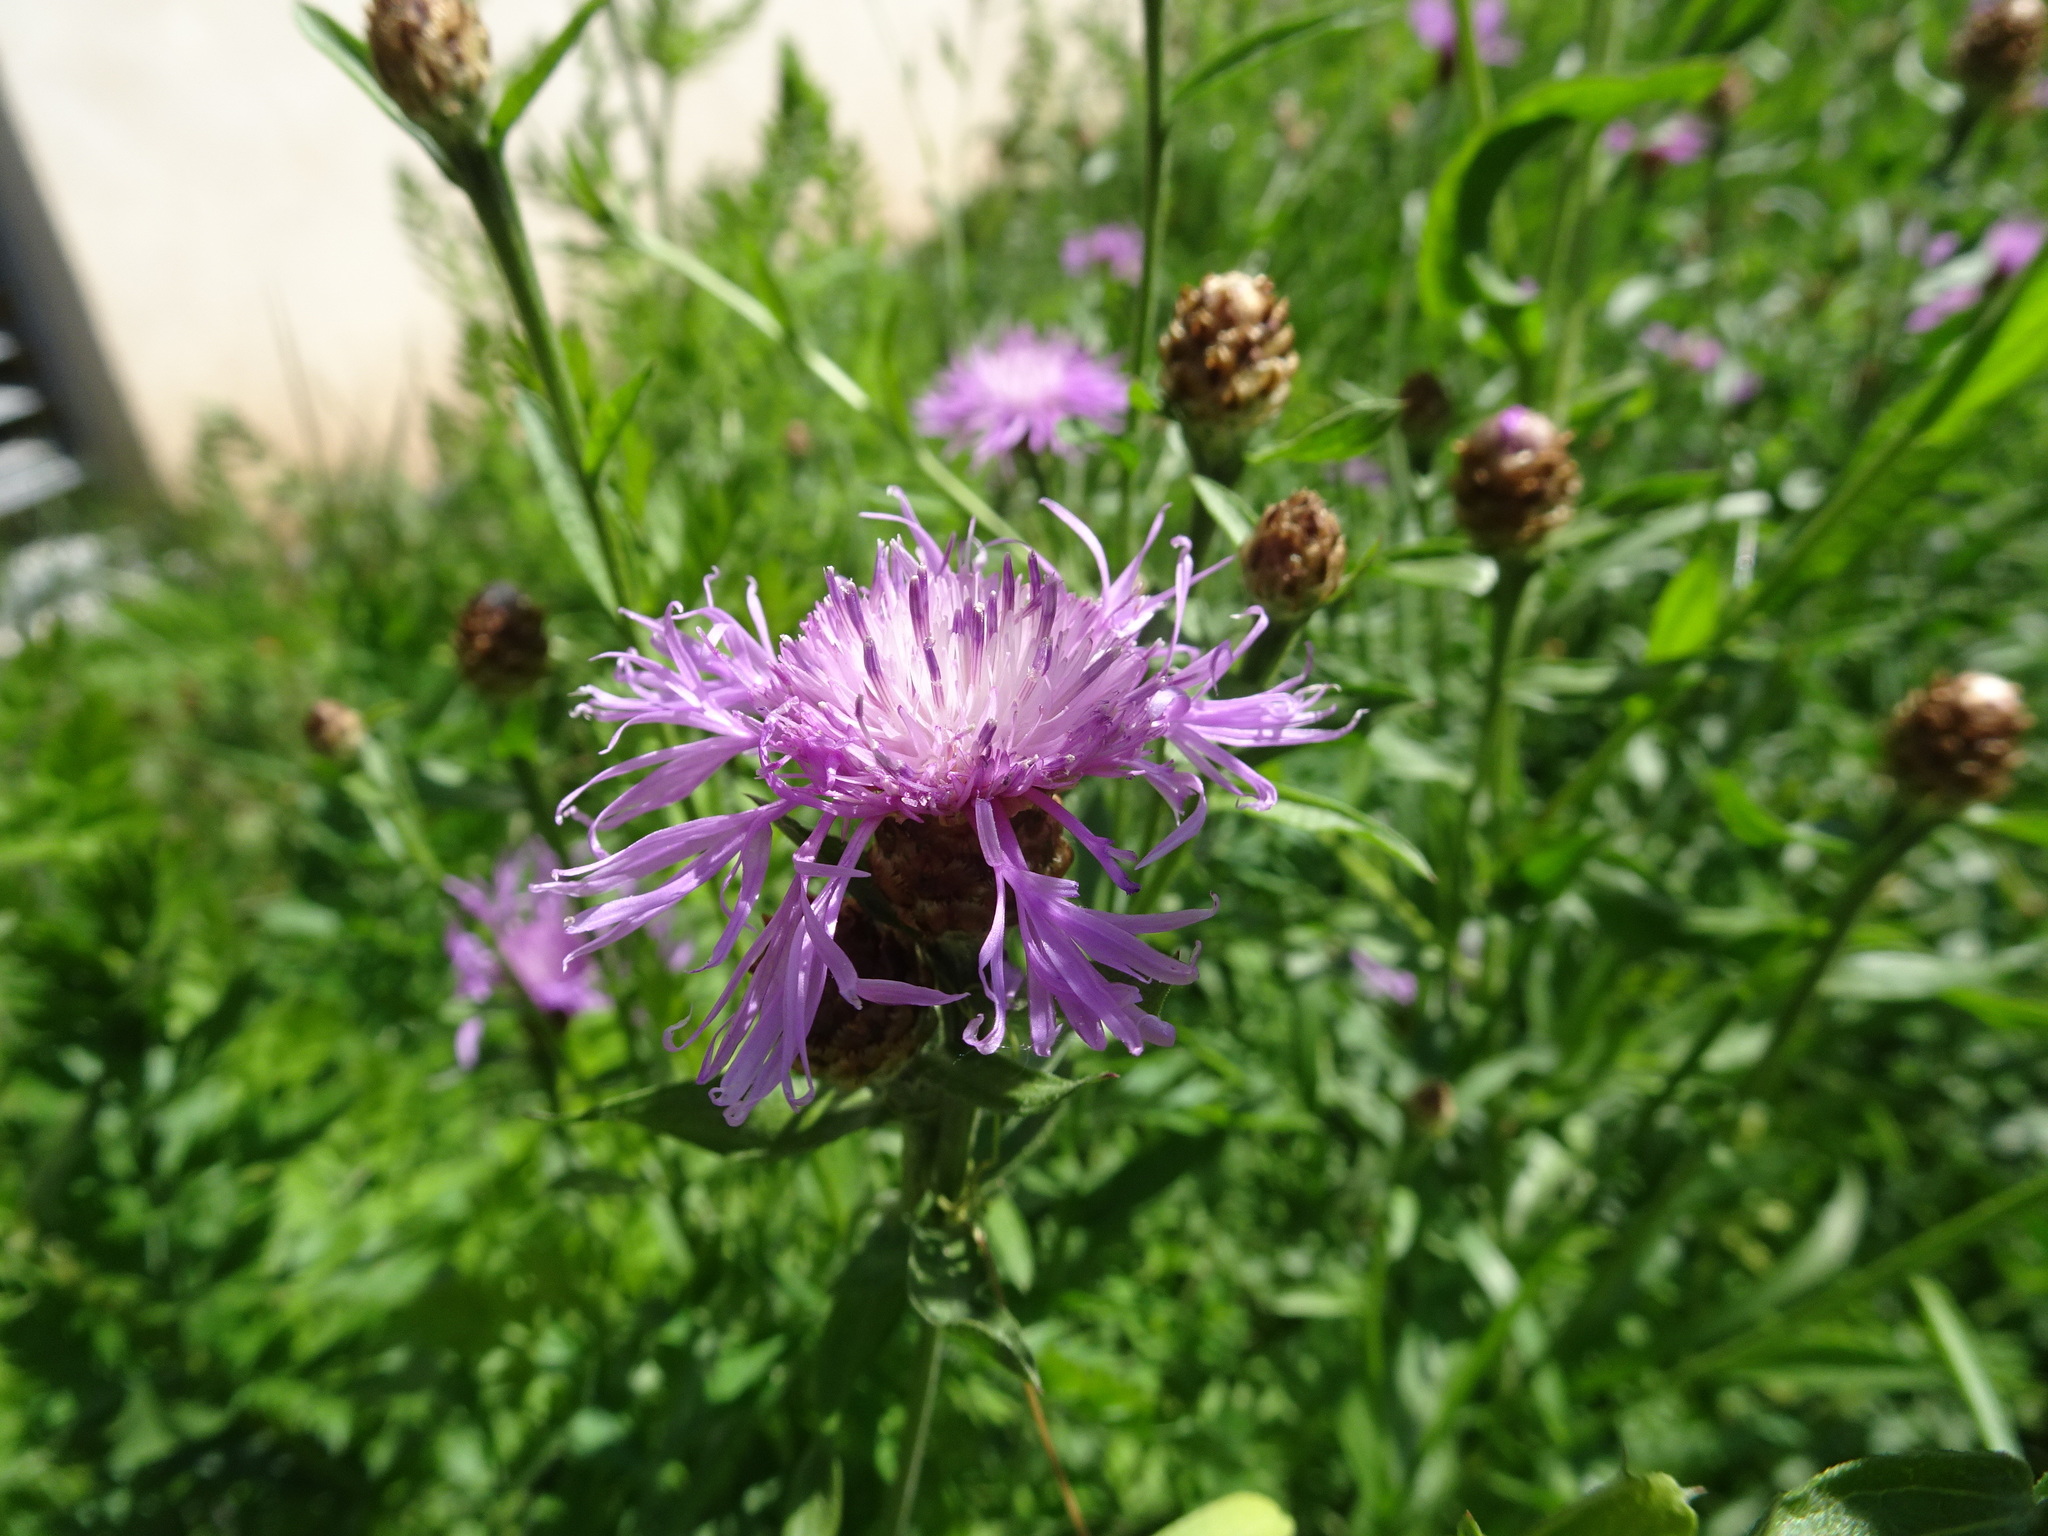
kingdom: Plantae
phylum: Tracheophyta
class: Magnoliopsida
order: Asterales
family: Asteraceae
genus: Centaurea
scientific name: Centaurea jacea
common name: Brown knapweed
